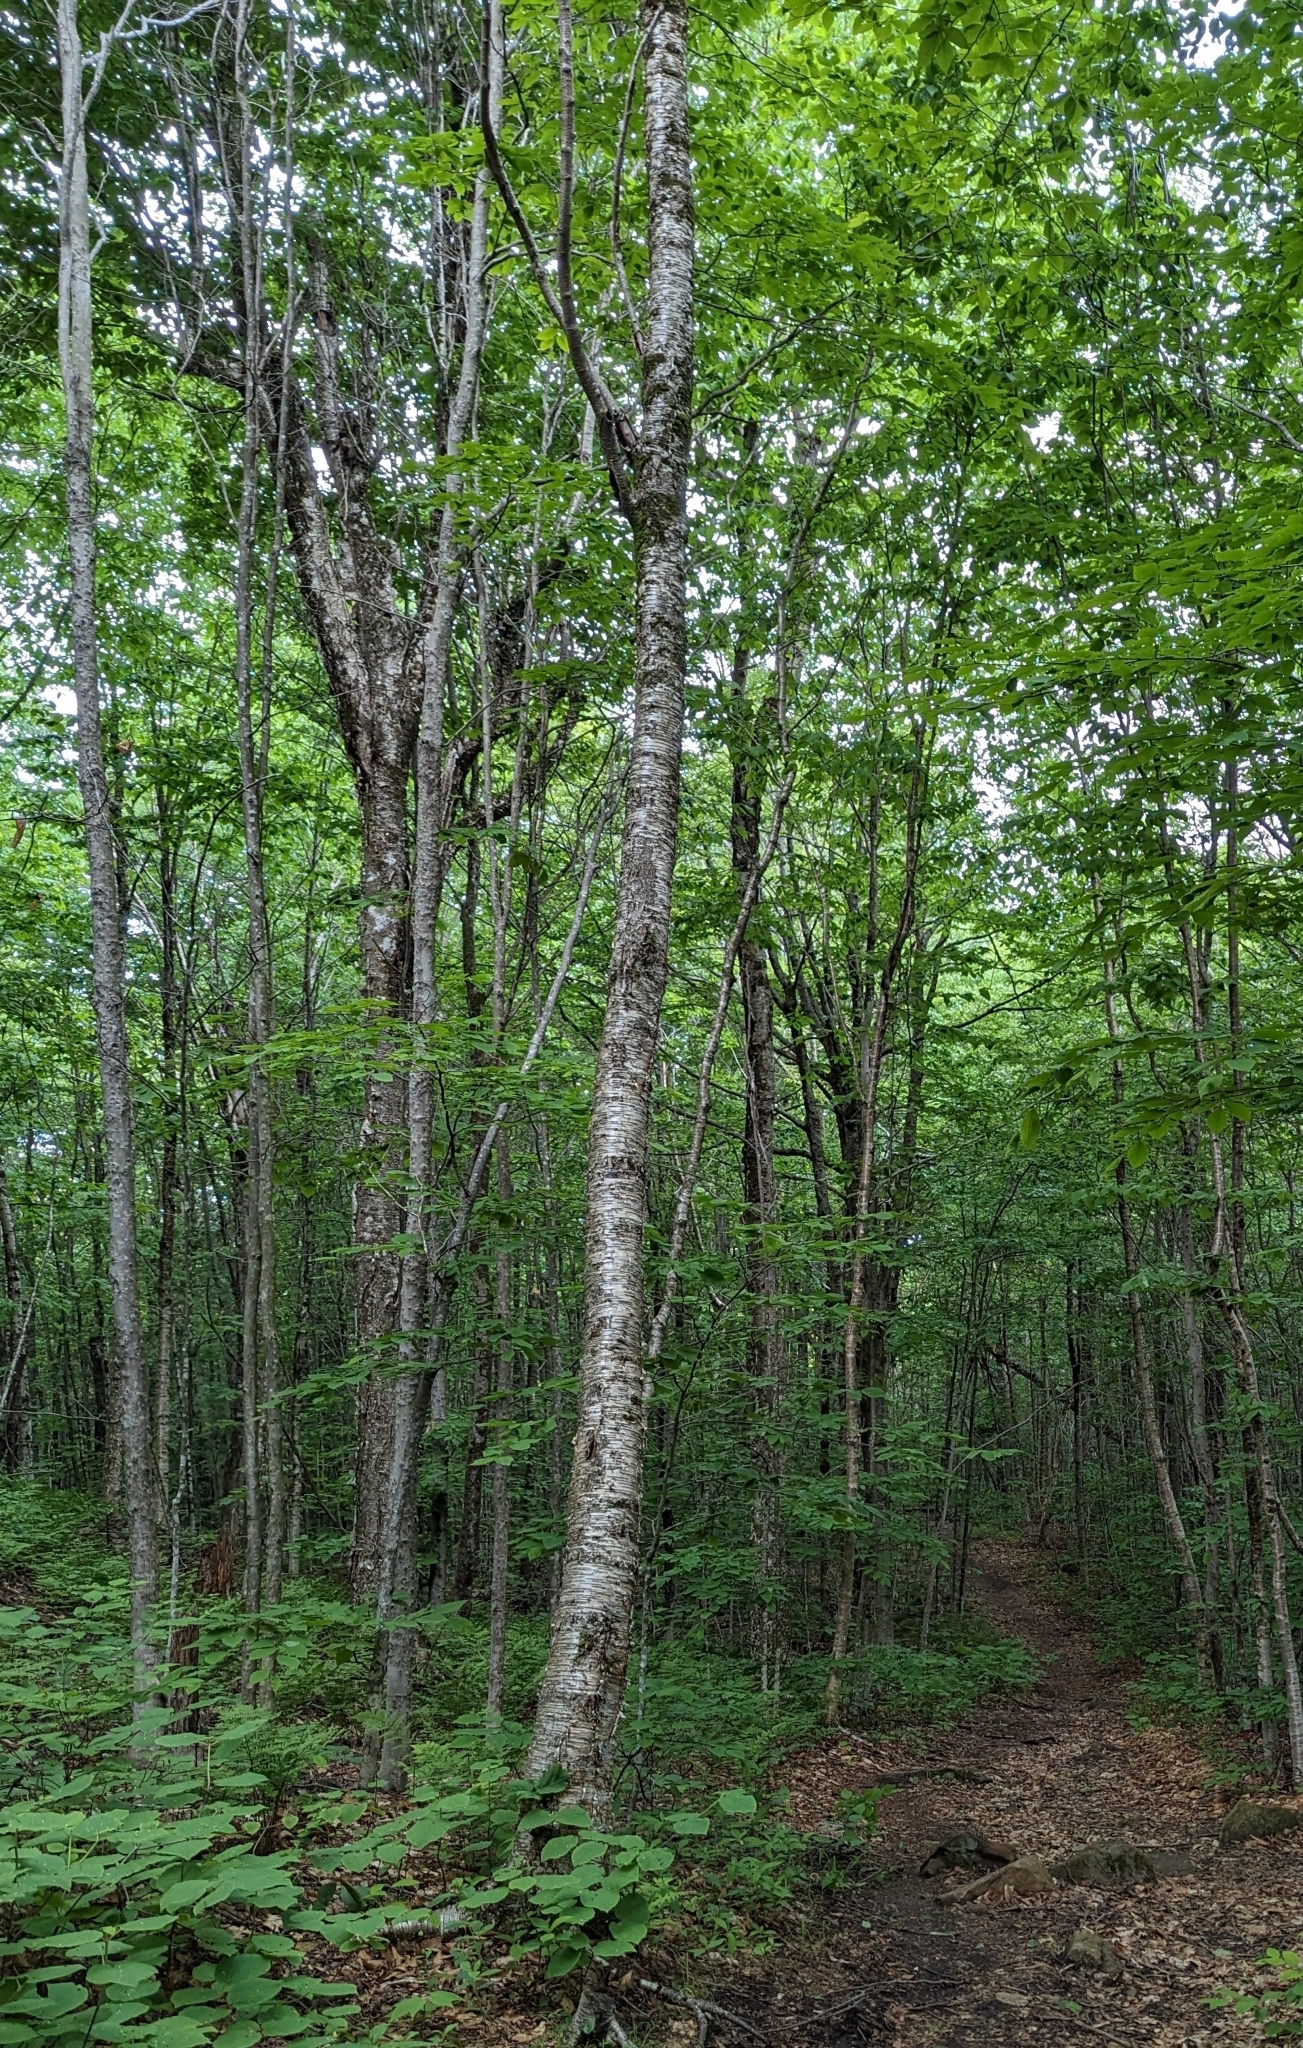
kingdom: Plantae
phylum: Tracheophyta
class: Magnoliopsida
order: Fagales
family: Betulaceae
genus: Betula
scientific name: Betula alleghaniensis
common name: Yellow birch
